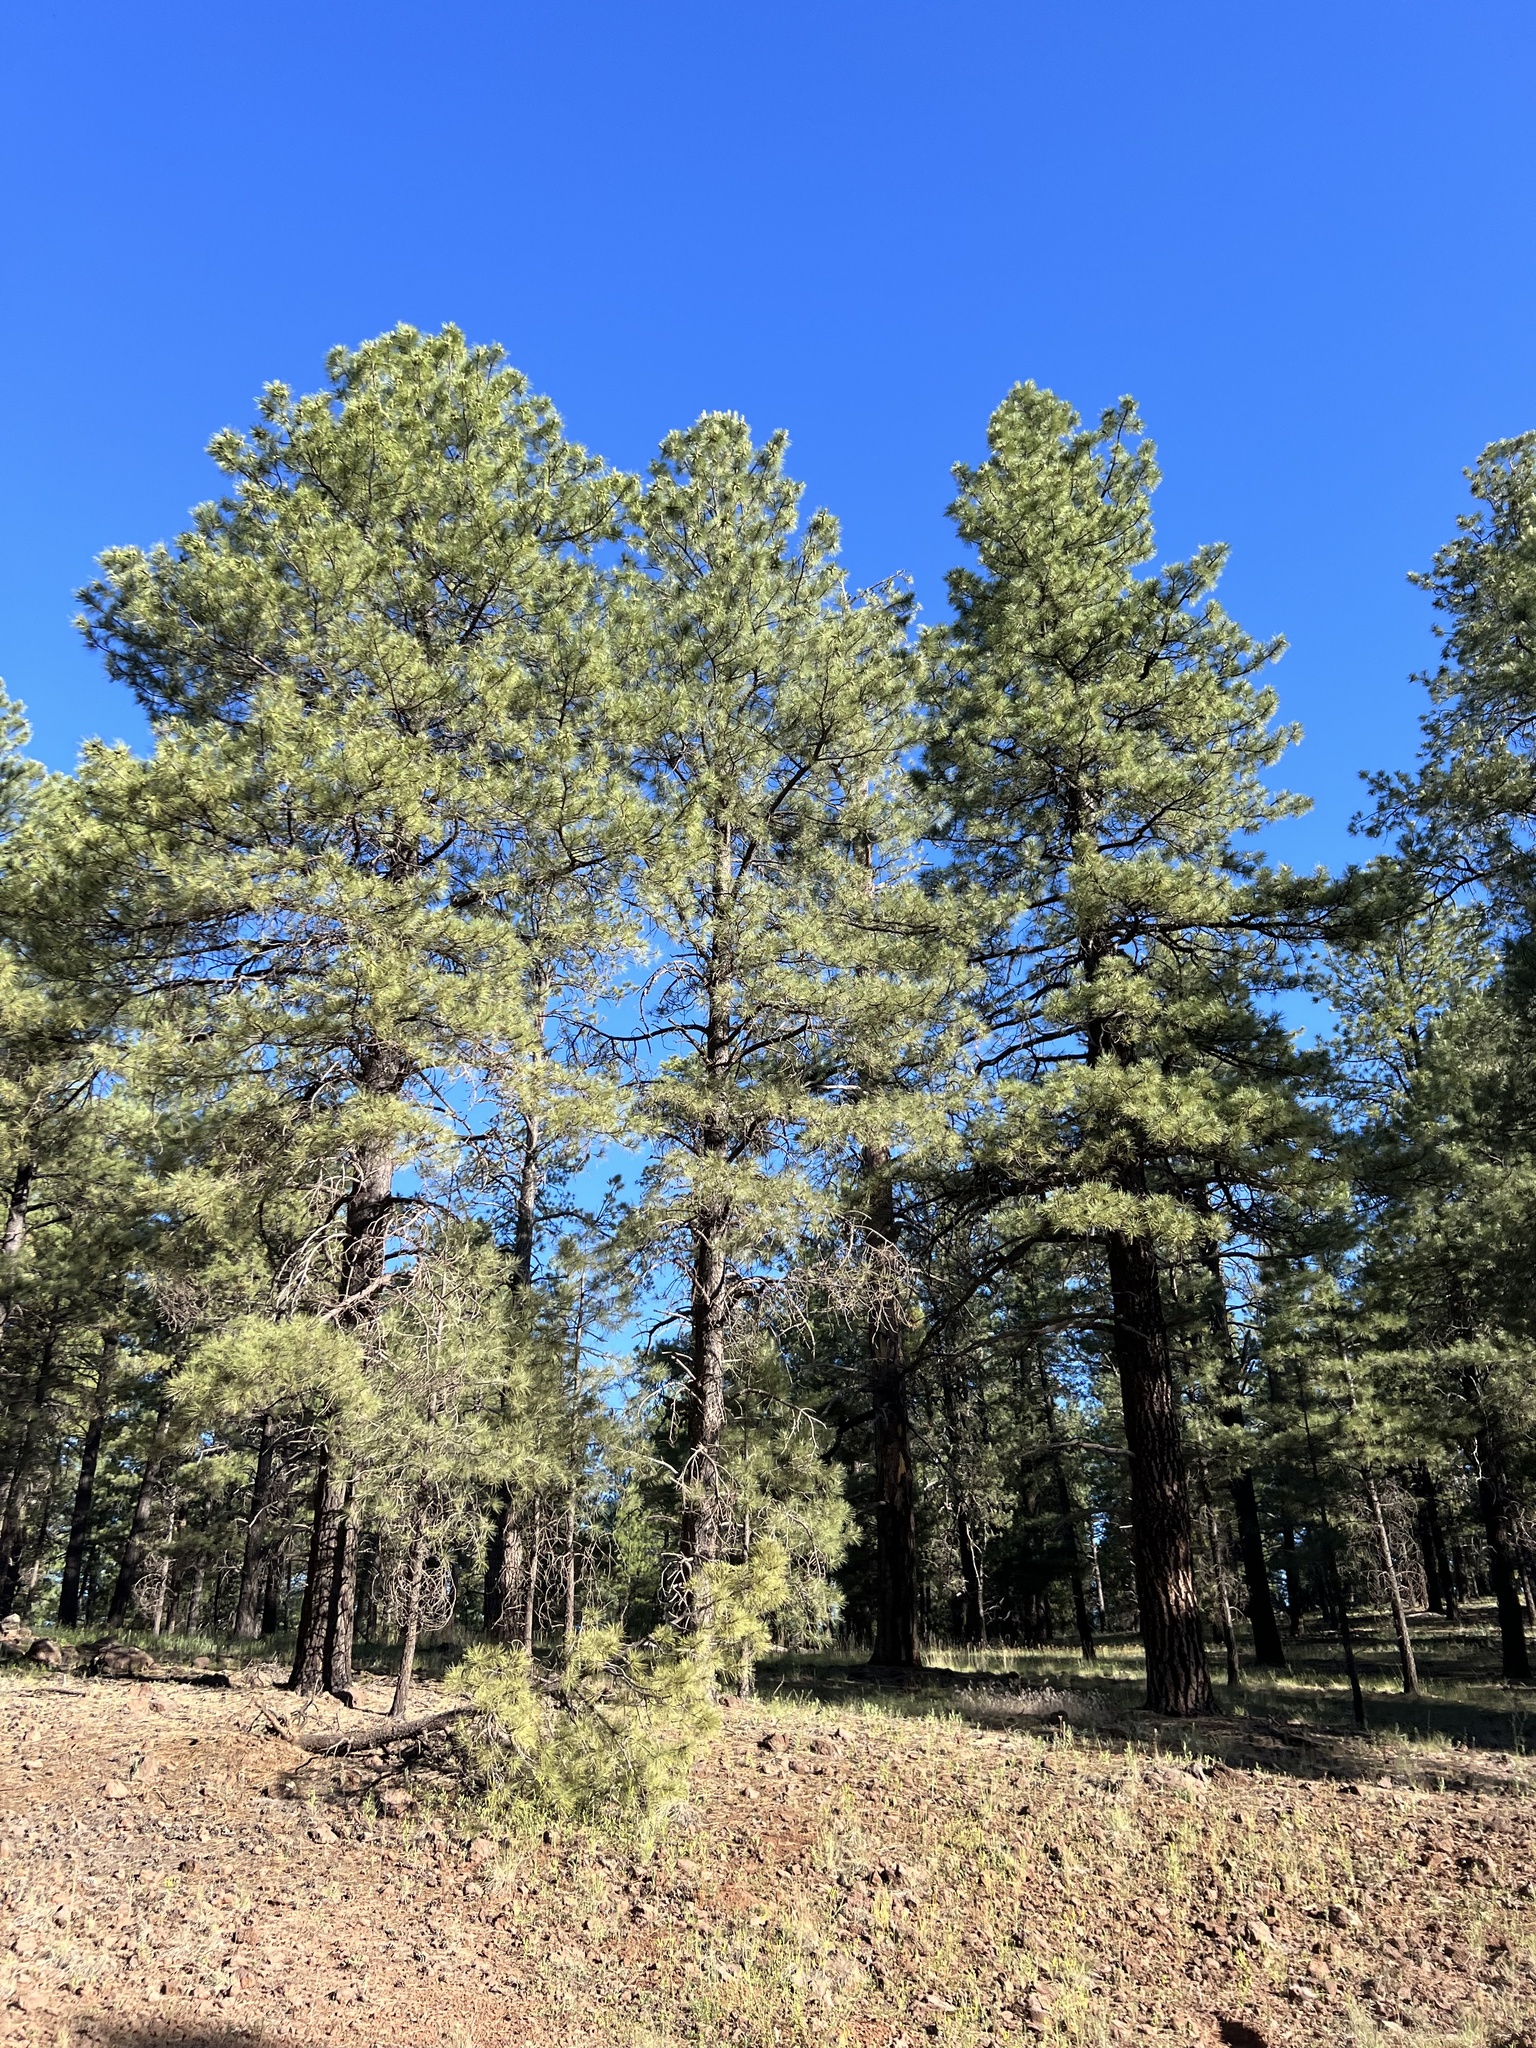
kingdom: Plantae
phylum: Tracheophyta
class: Pinopsida
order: Pinales
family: Pinaceae
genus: Pinus
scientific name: Pinus ponderosa
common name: Western yellow-pine
